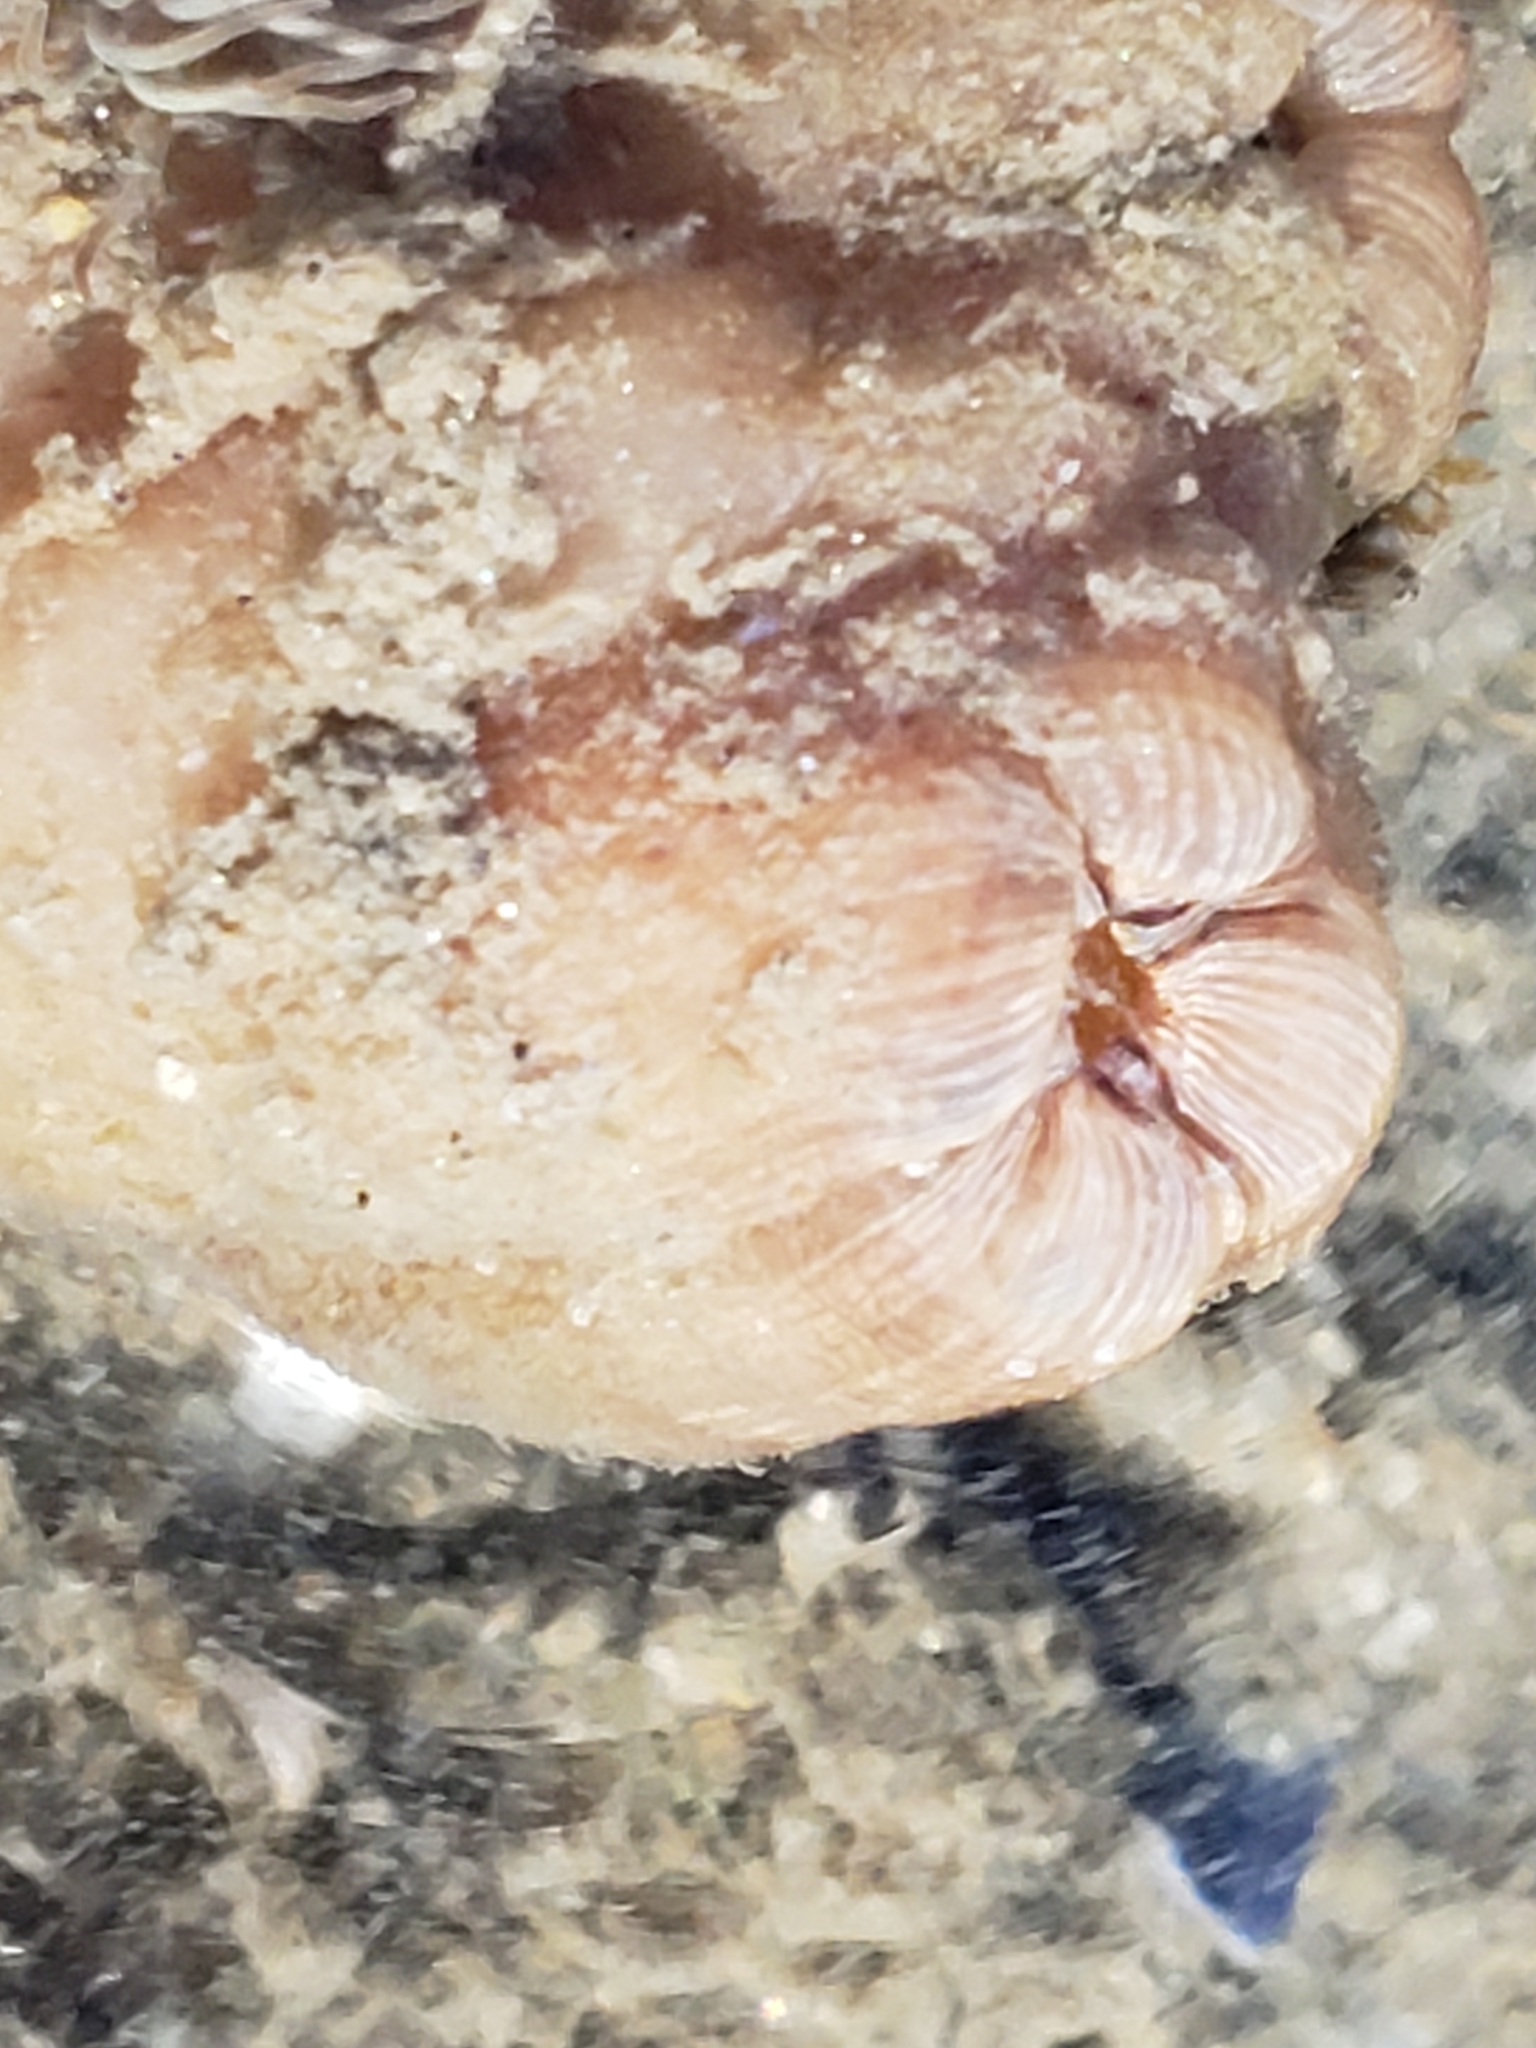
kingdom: Animalia
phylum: Chordata
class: Ascidiacea
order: Stolidobranchia
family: Styelidae
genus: Styela
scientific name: Styela plicata
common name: Pleated tunicate
